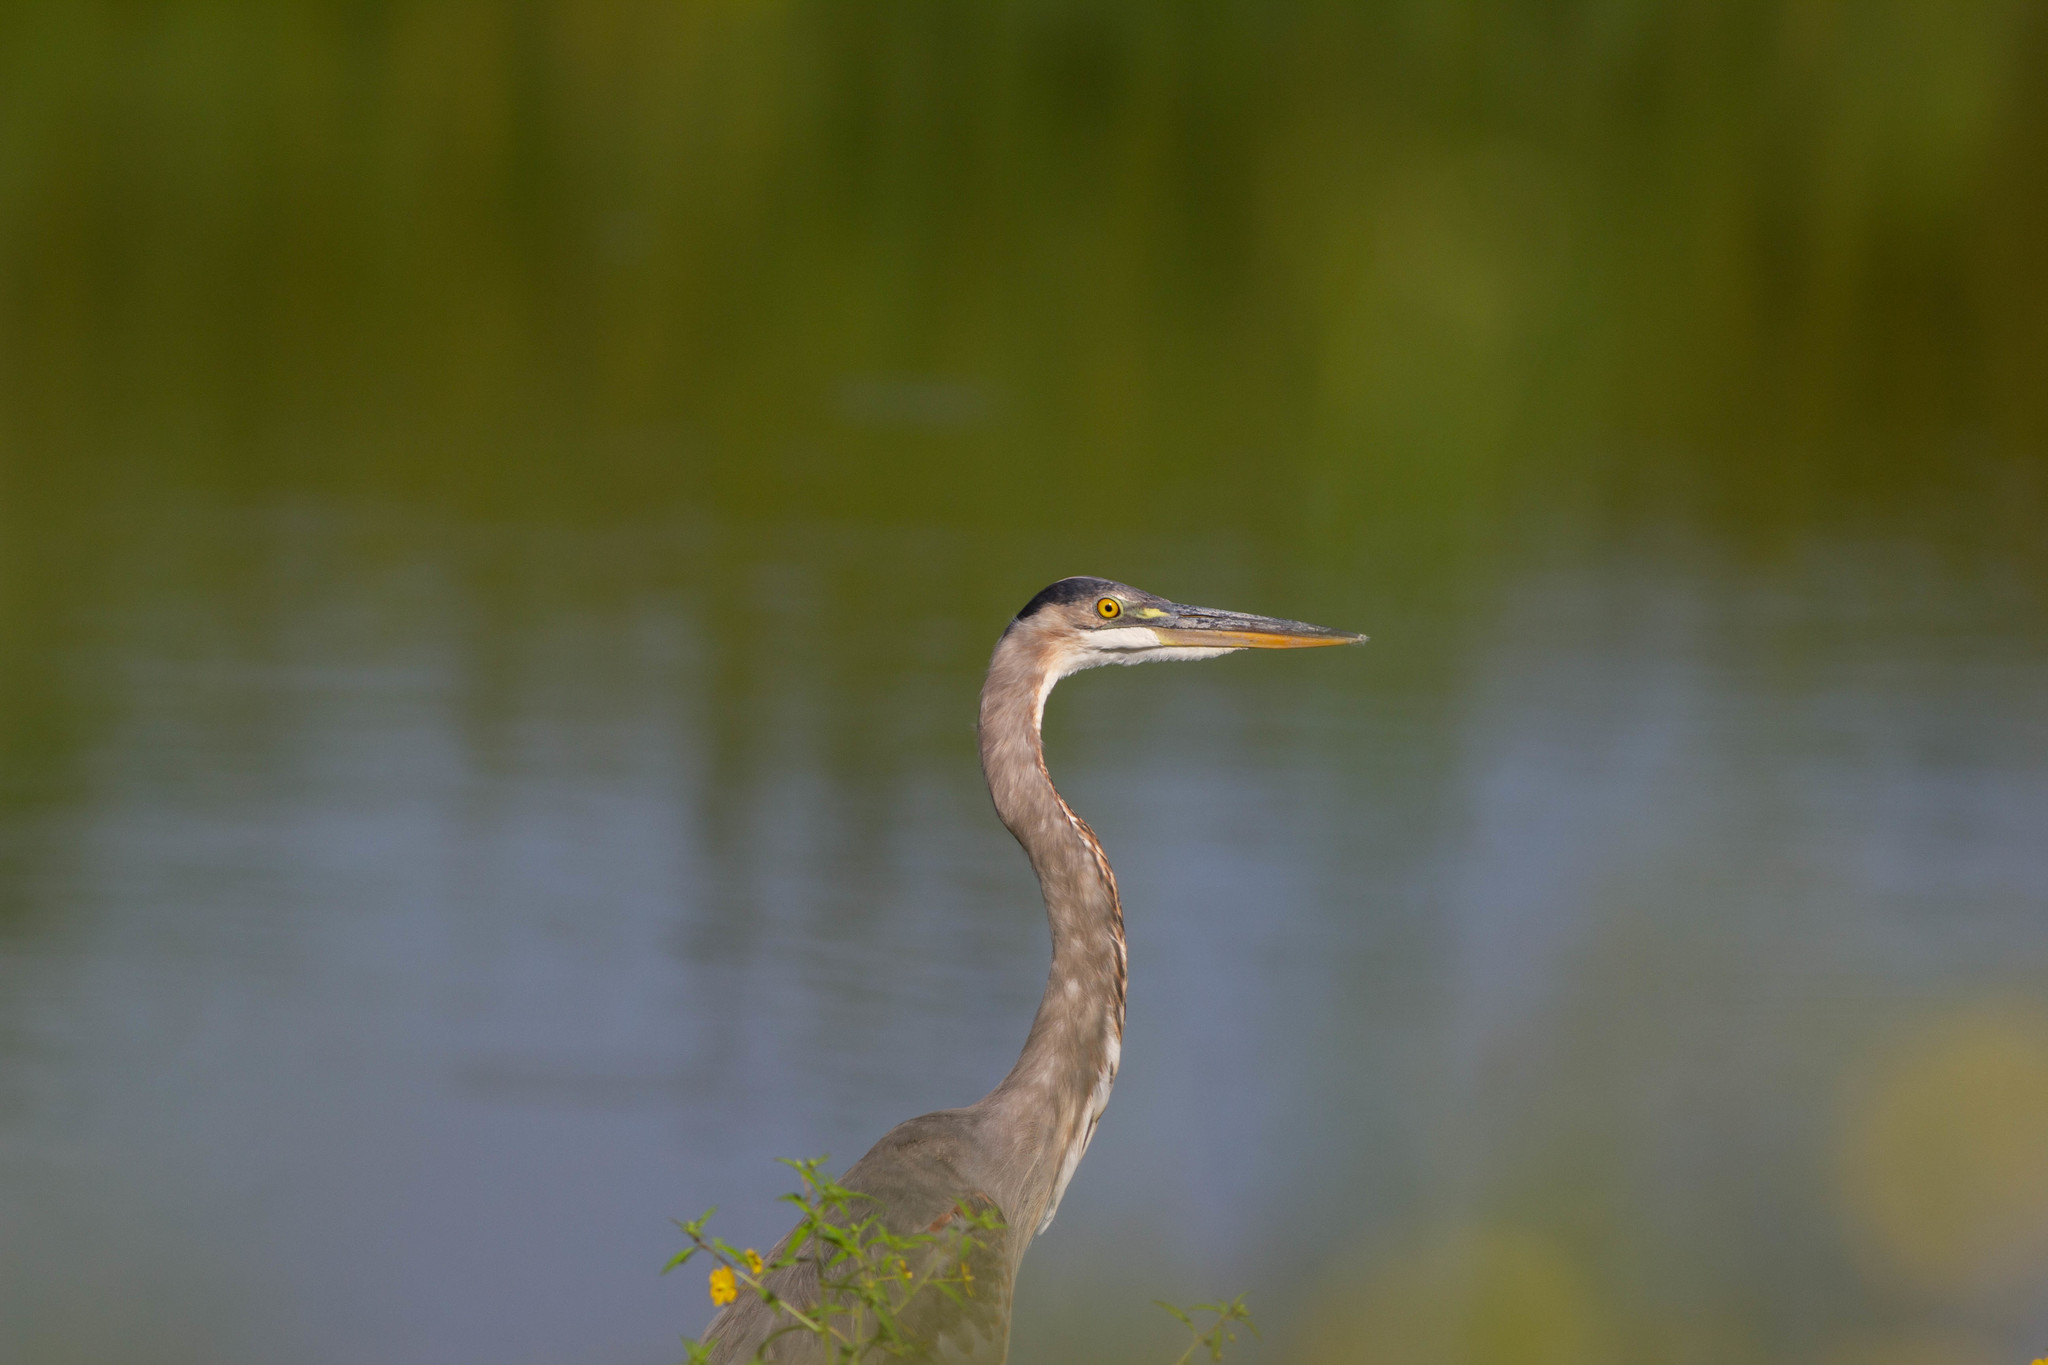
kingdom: Animalia
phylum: Chordata
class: Aves
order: Pelecaniformes
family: Ardeidae
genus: Ardea
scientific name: Ardea herodias
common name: Great blue heron
